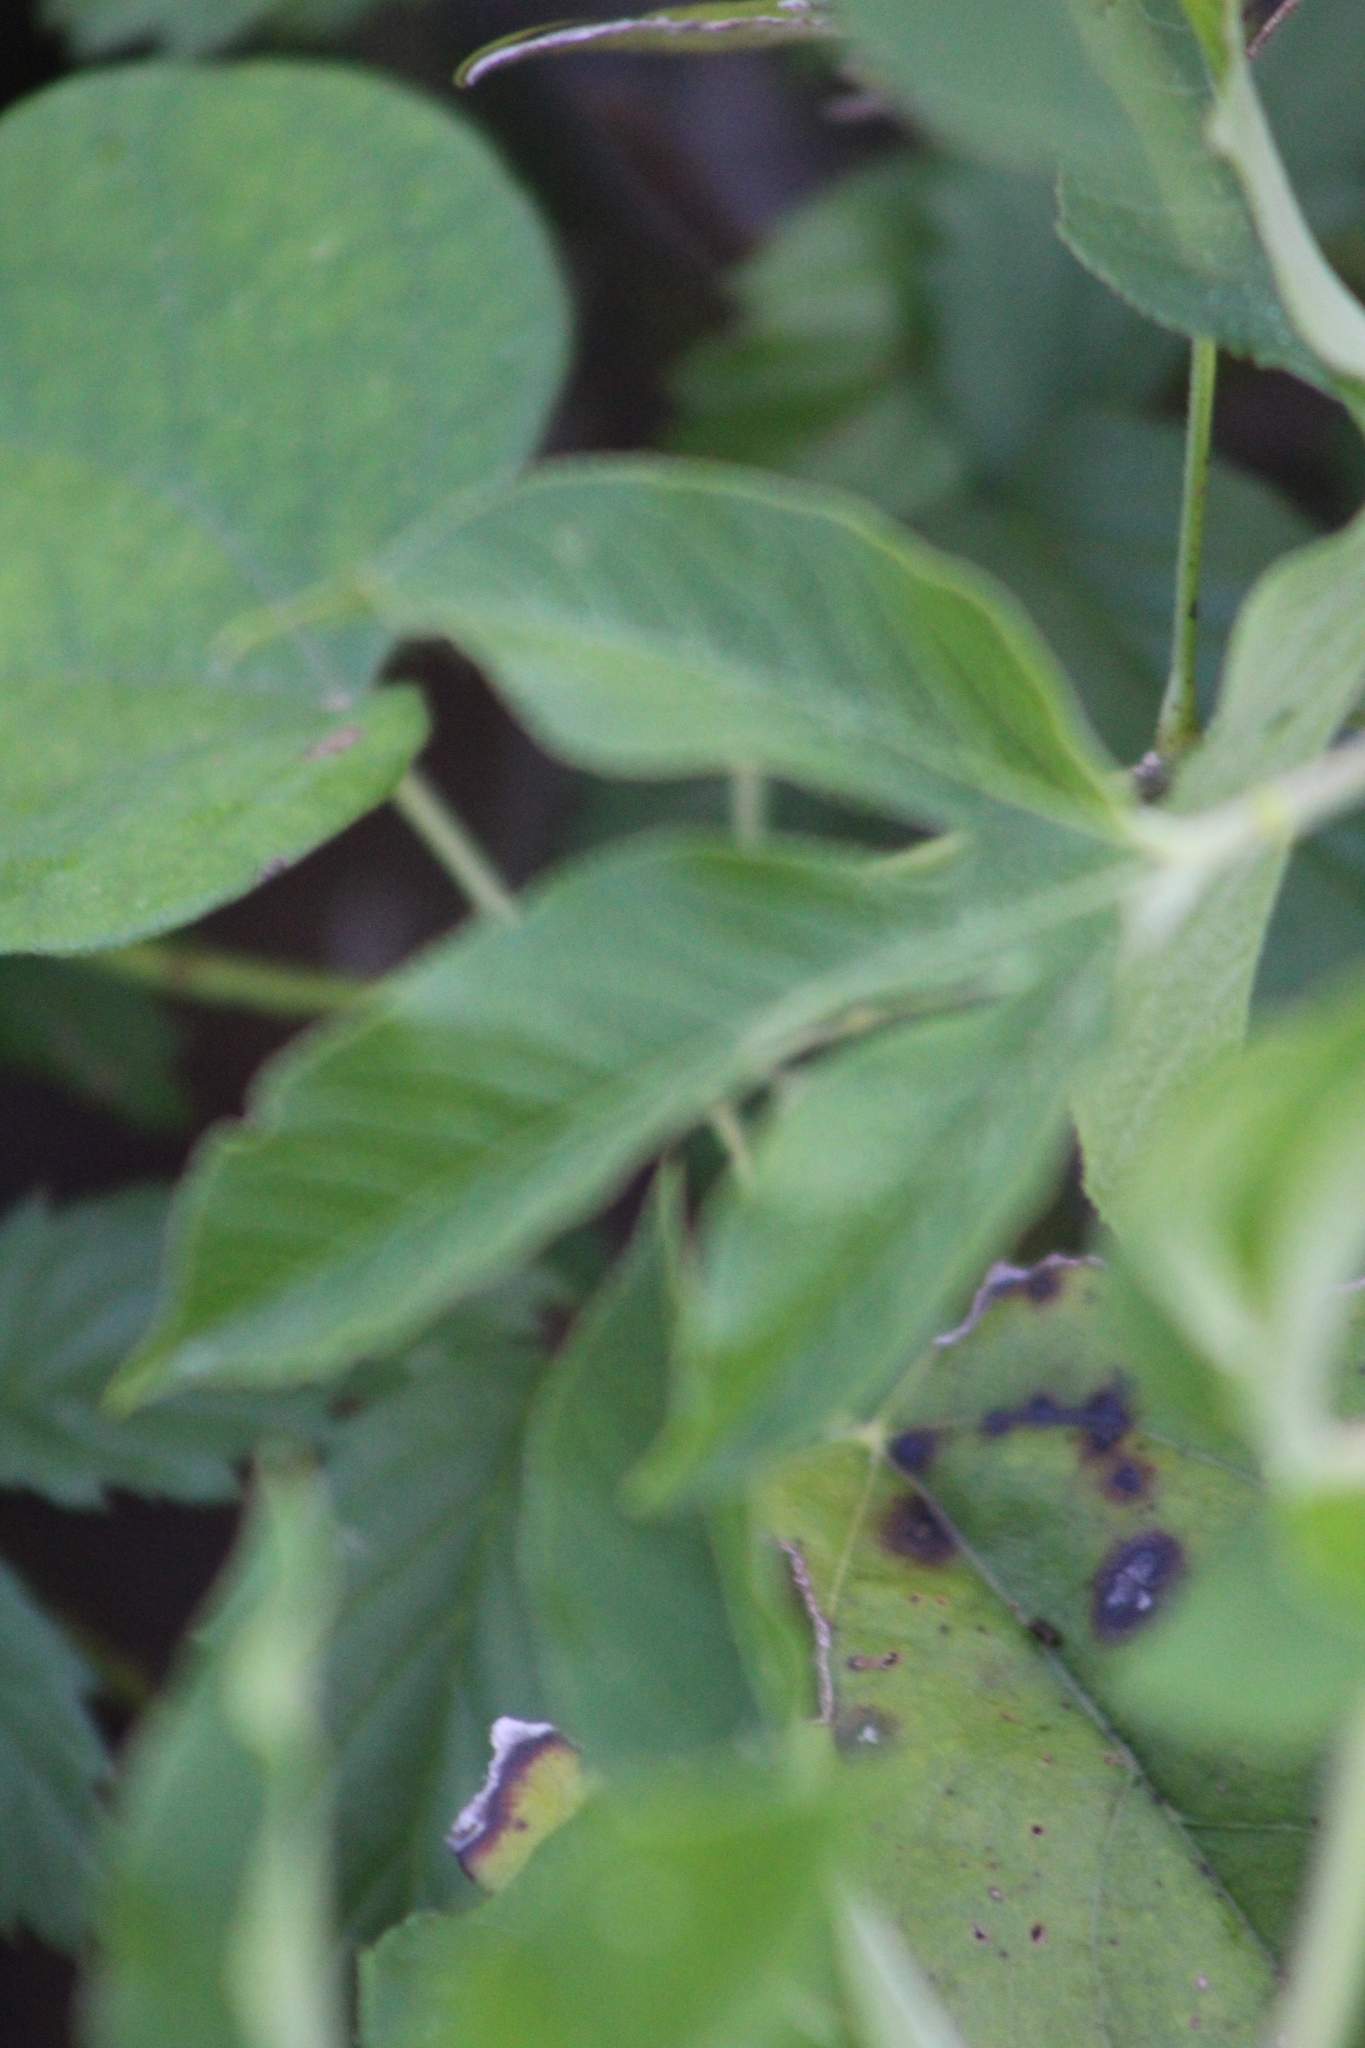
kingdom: Plantae
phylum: Tracheophyta
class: Magnoliopsida
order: Malpighiales
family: Passifloraceae
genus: Passiflora
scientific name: Passiflora incarnata
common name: Apricot-vine
